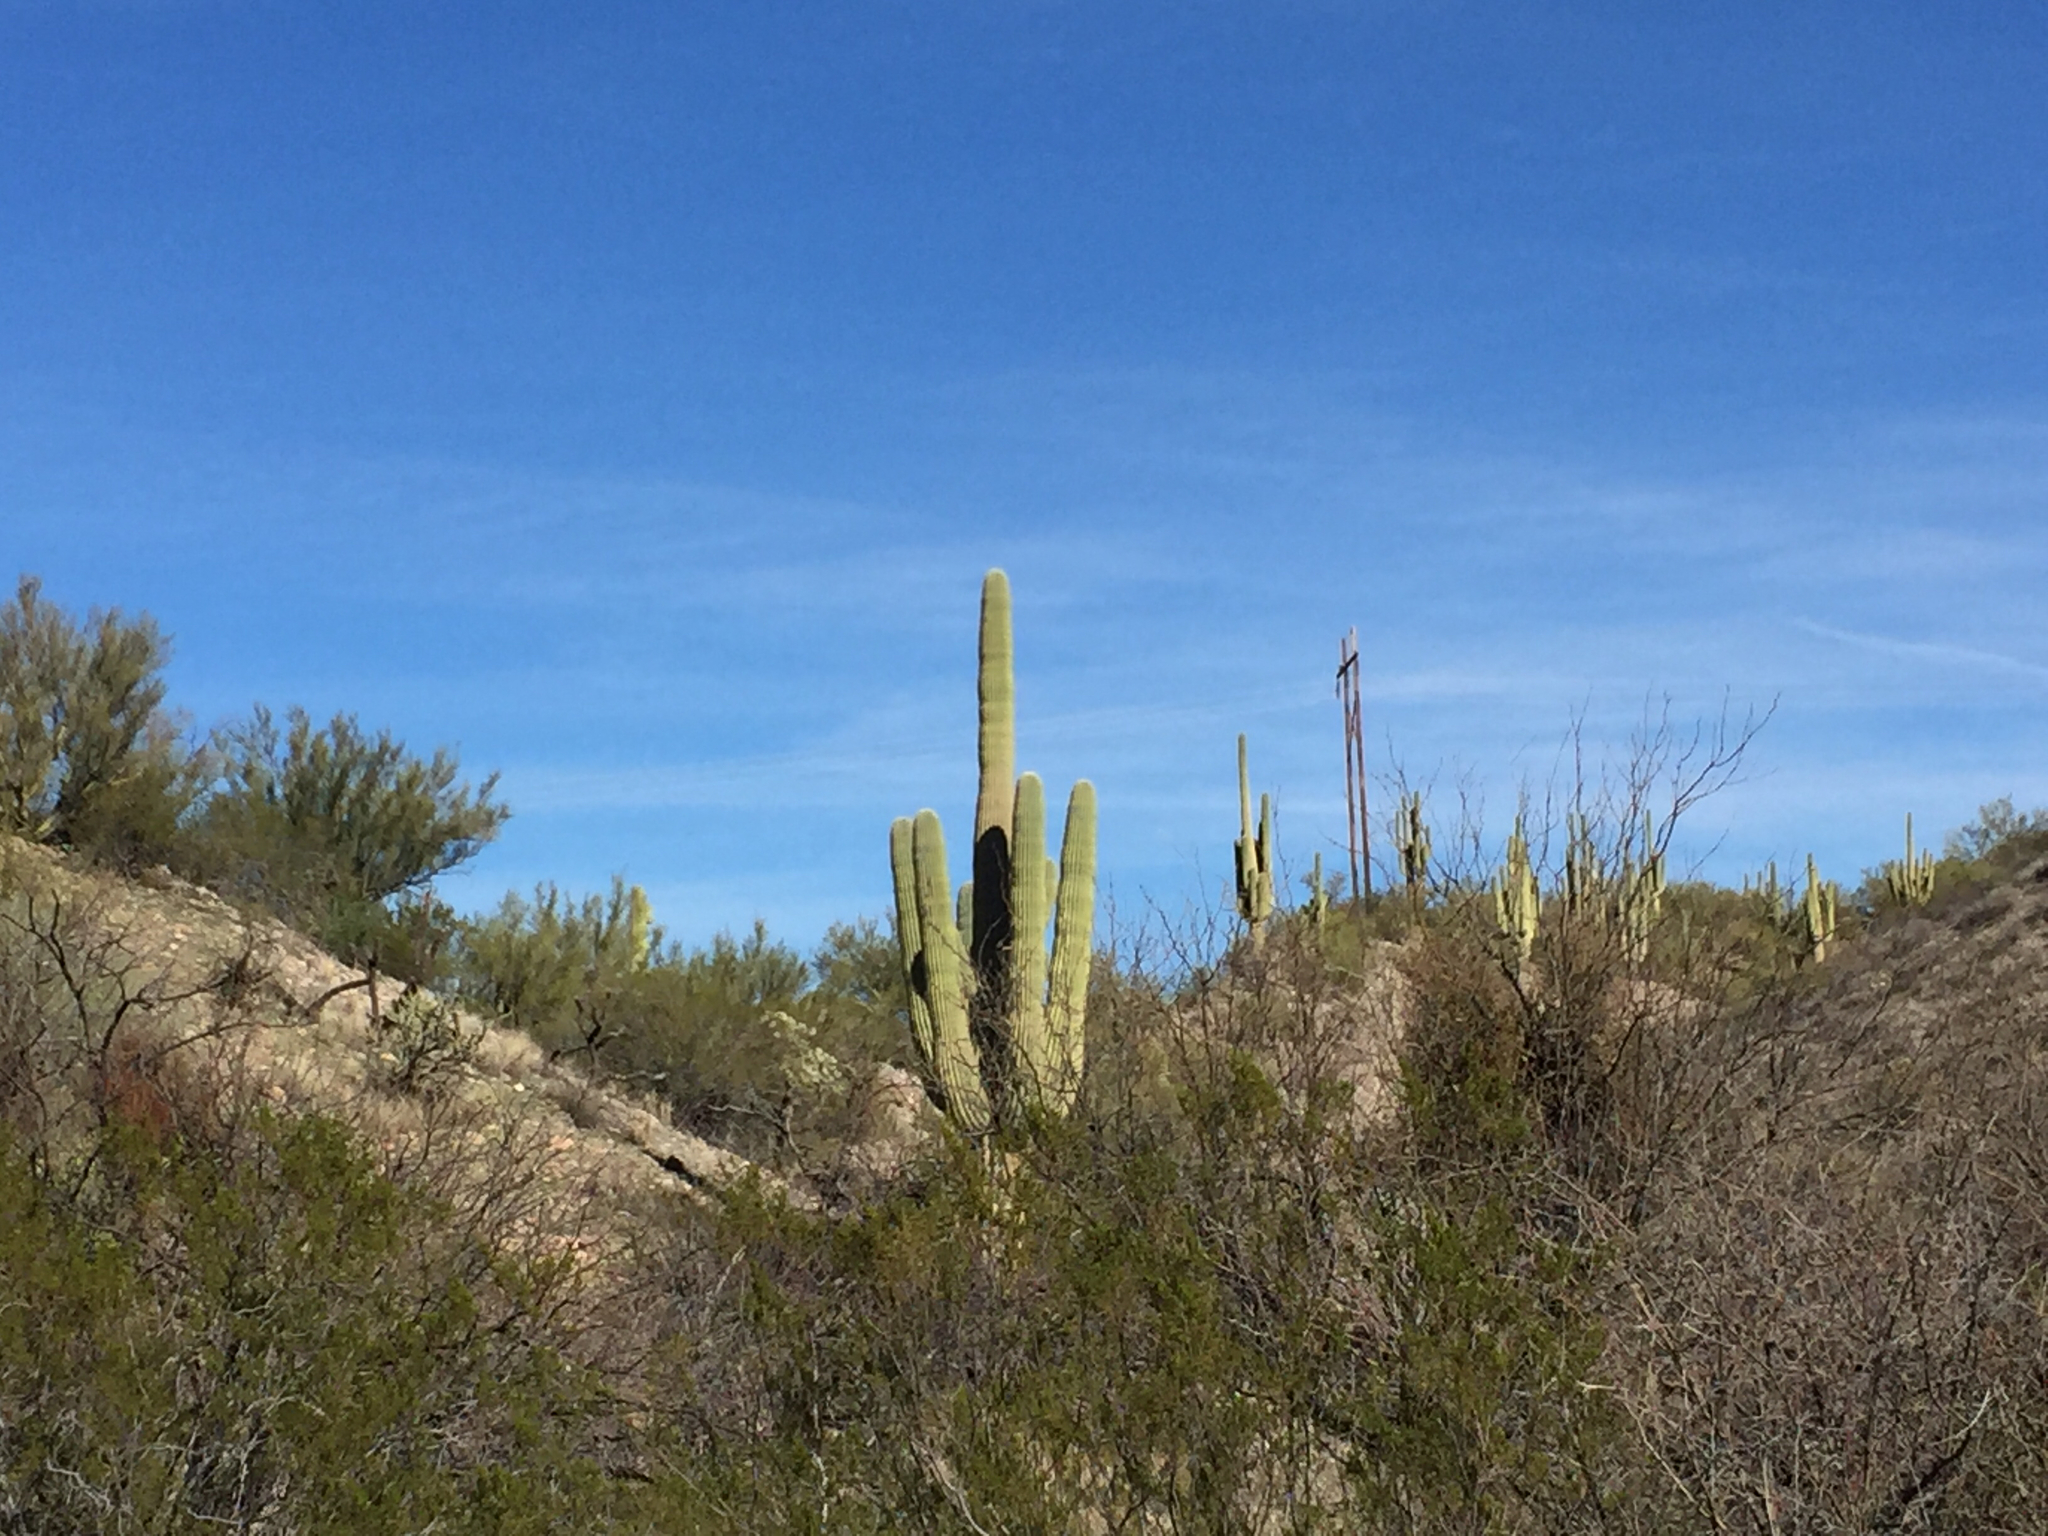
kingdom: Plantae
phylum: Tracheophyta
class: Magnoliopsida
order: Caryophyllales
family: Cactaceae
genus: Carnegiea
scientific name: Carnegiea gigantea
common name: Saguaro
